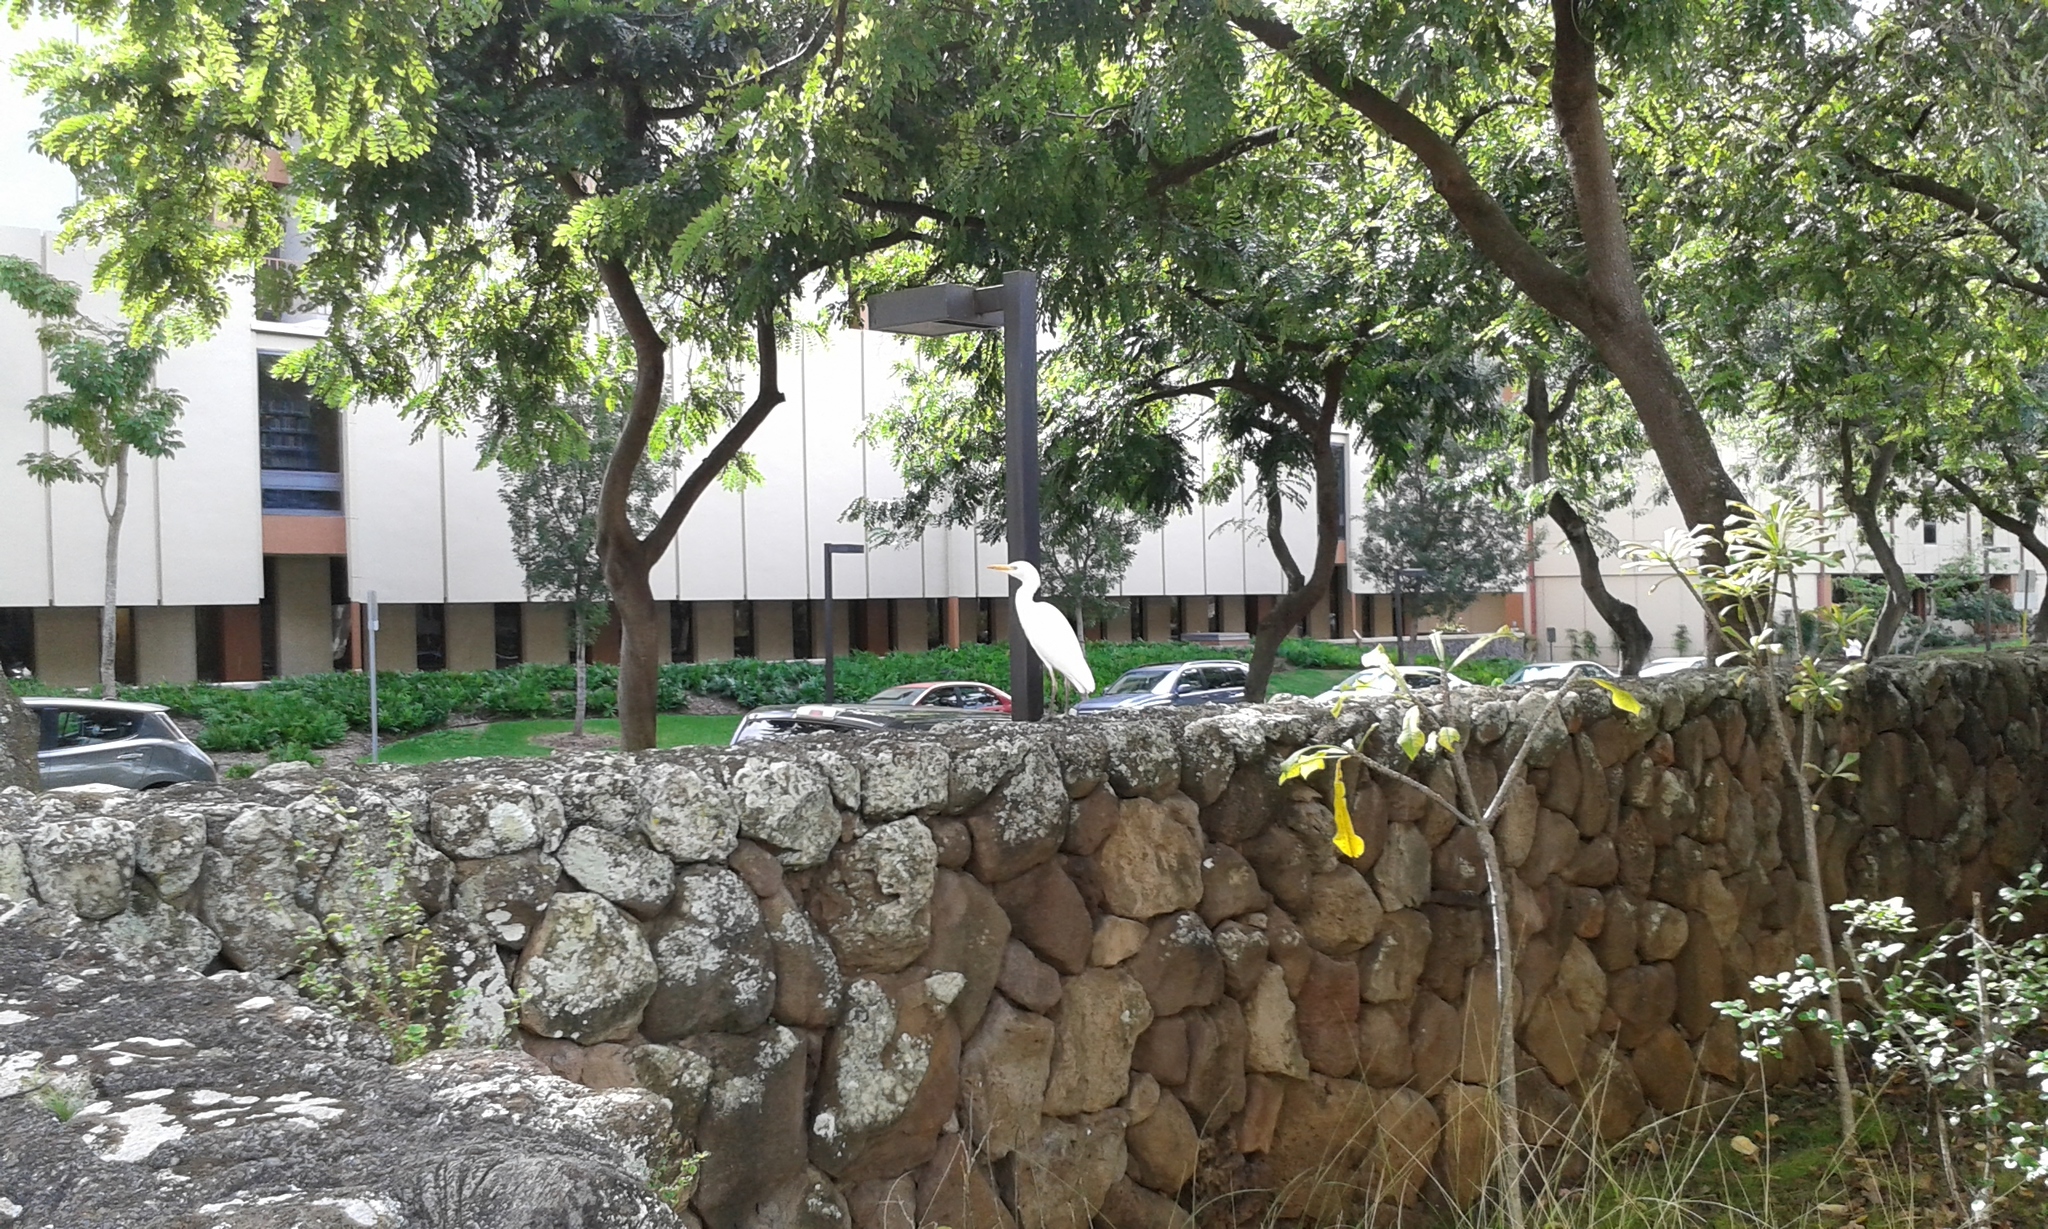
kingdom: Animalia
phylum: Chordata
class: Aves
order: Pelecaniformes
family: Ardeidae
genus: Bubulcus
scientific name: Bubulcus ibis
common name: Cattle egret
